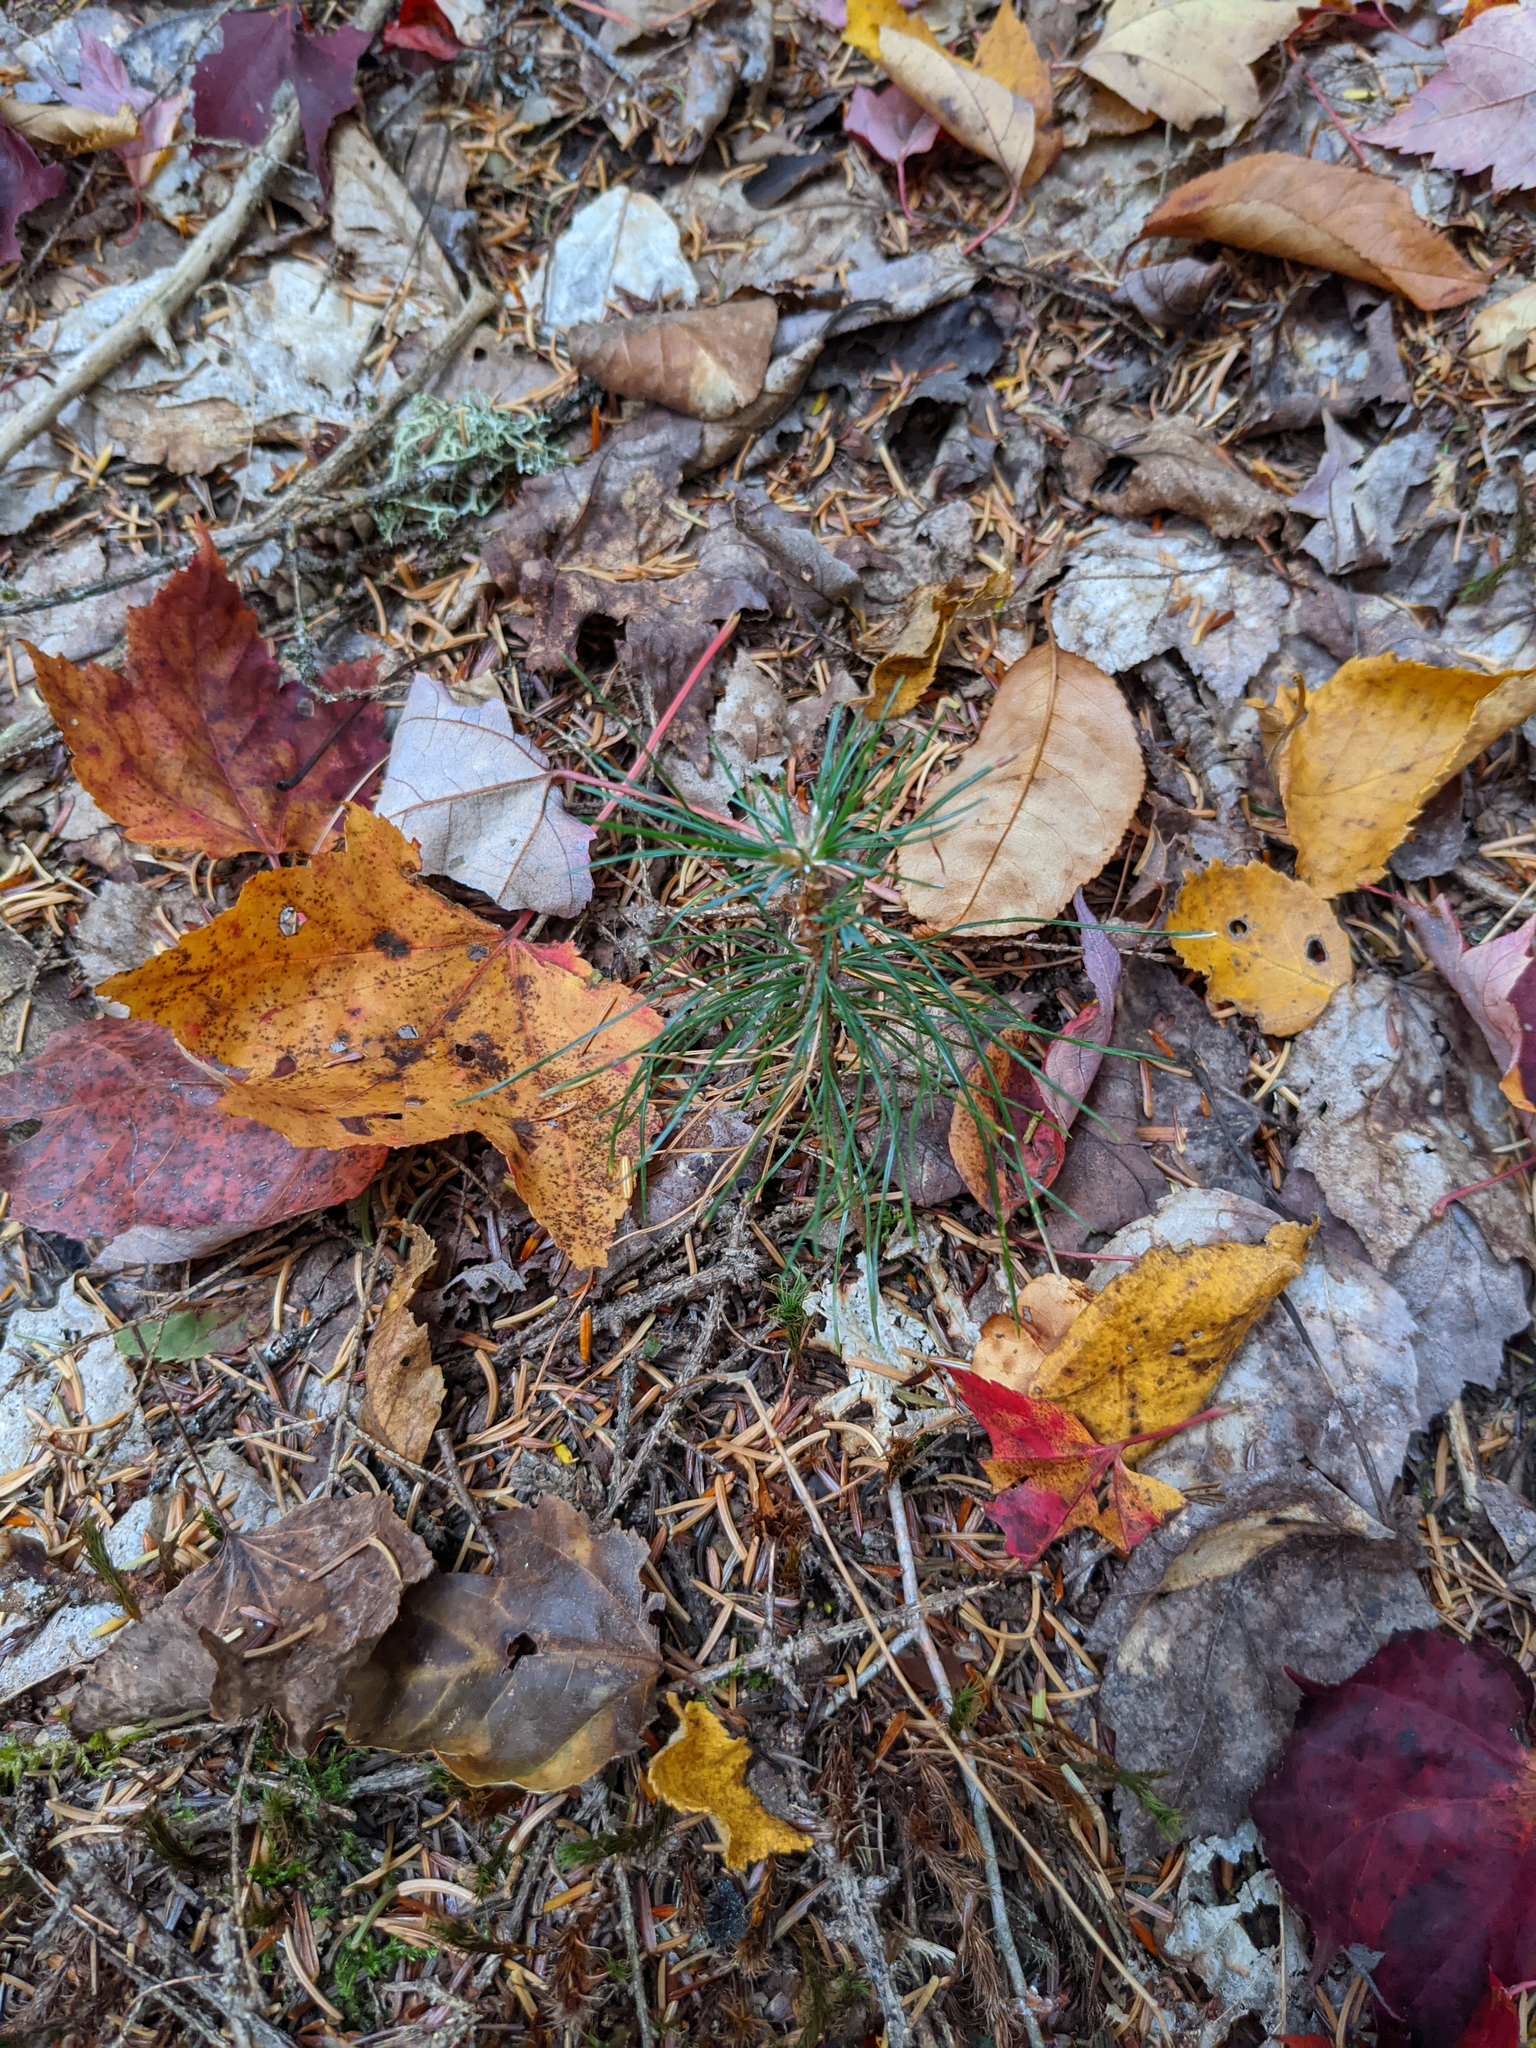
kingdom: Plantae
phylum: Tracheophyta
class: Pinopsida
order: Pinales
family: Pinaceae
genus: Pinus
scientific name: Pinus strobus
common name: Weymouth pine
